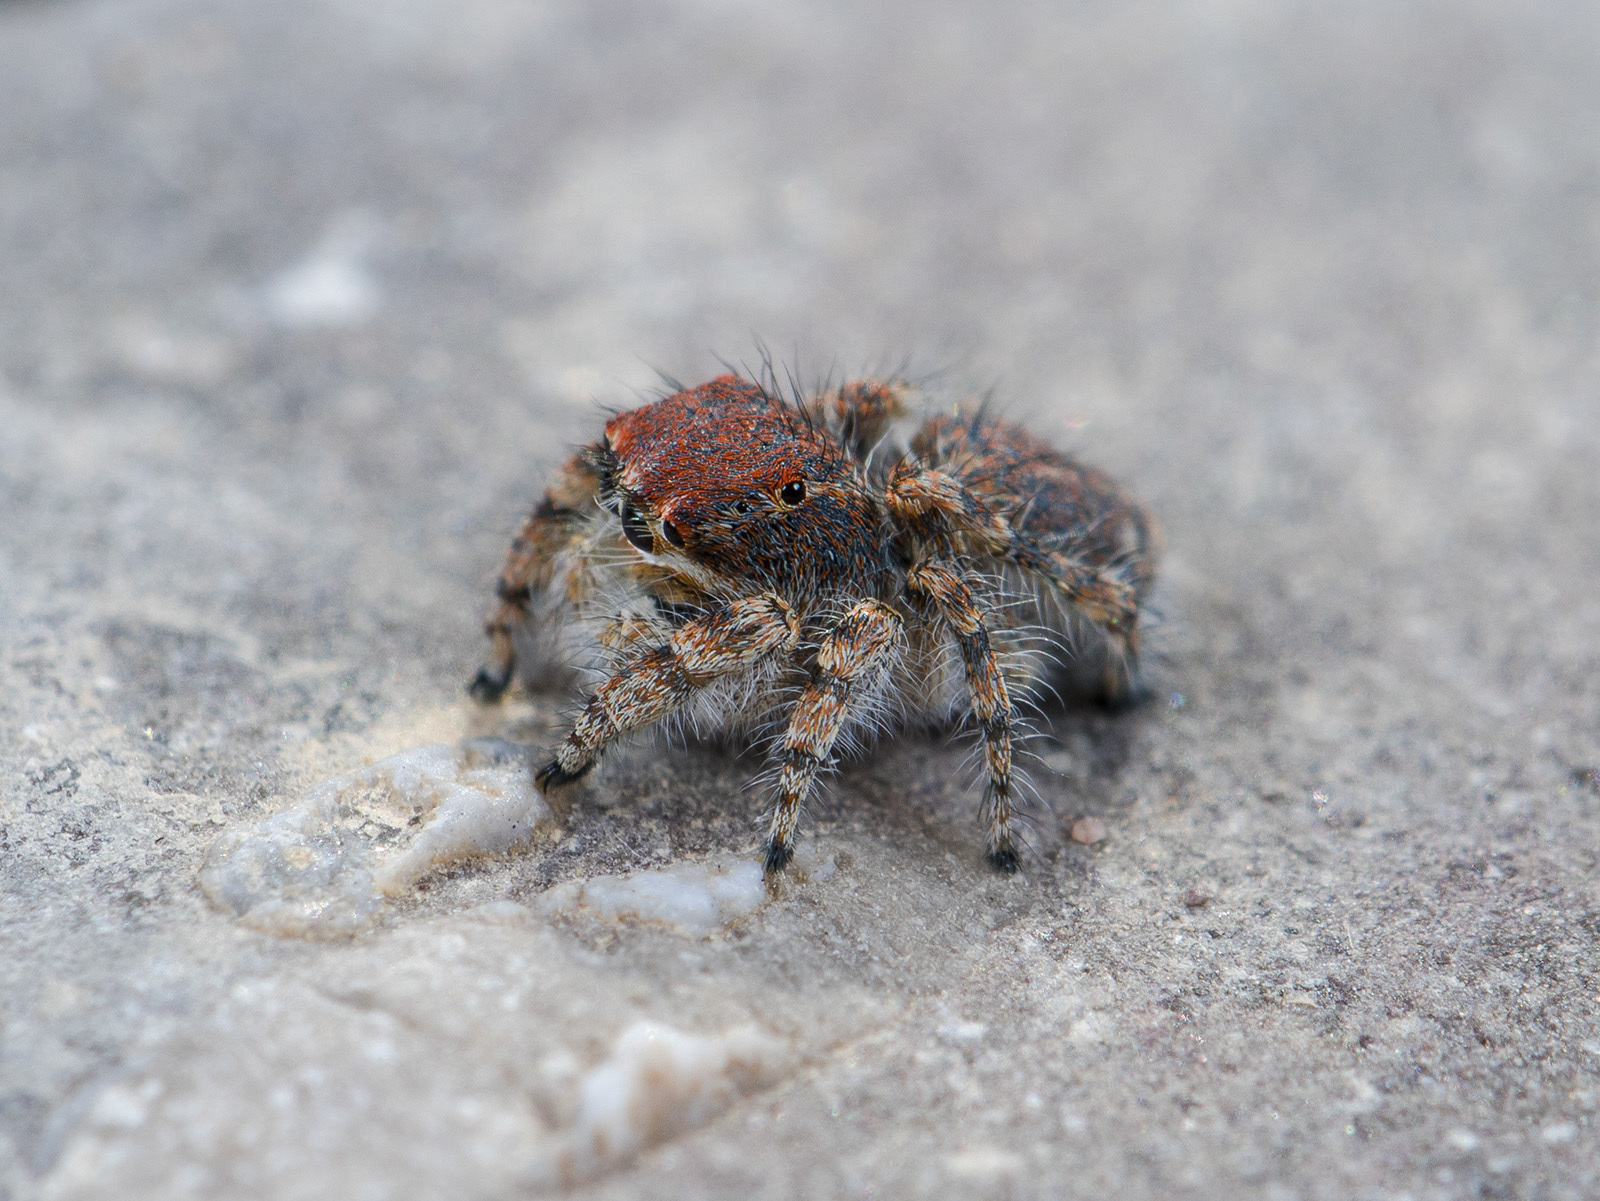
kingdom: Animalia
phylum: Arthropoda
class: Arachnida
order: Araneae
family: Salticidae
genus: Yllenus
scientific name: Yllenus zyuzini
